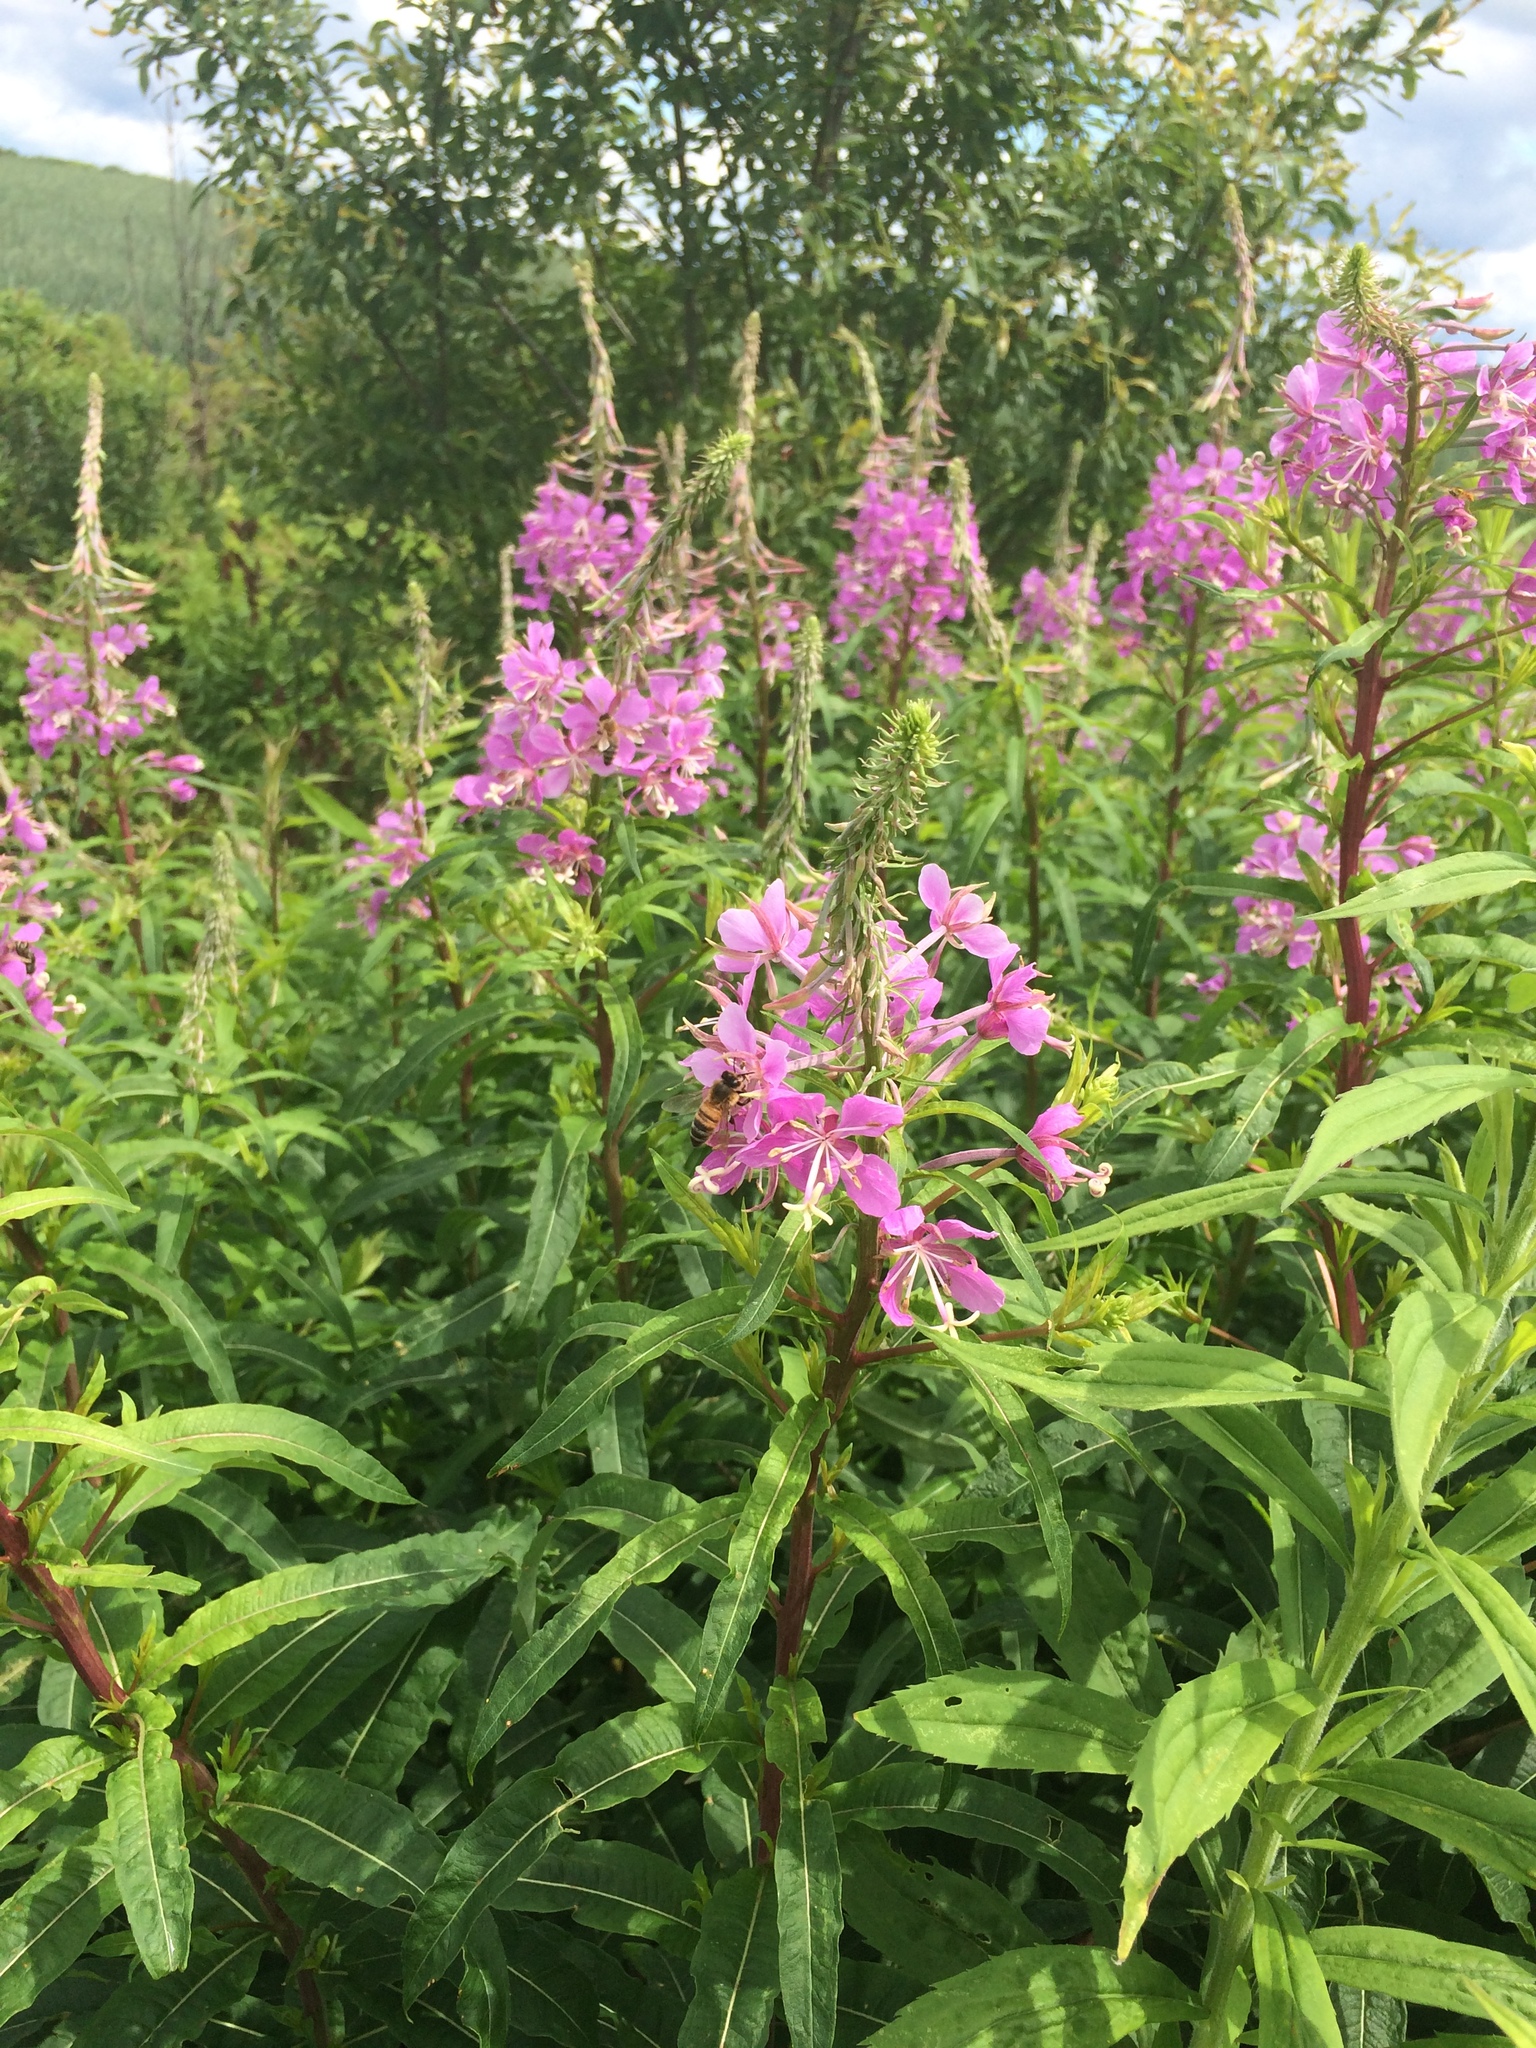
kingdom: Plantae
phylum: Tracheophyta
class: Magnoliopsida
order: Myrtales
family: Onagraceae
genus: Chamaenerion
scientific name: Chamaenerion angustifolium
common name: Fireweed
